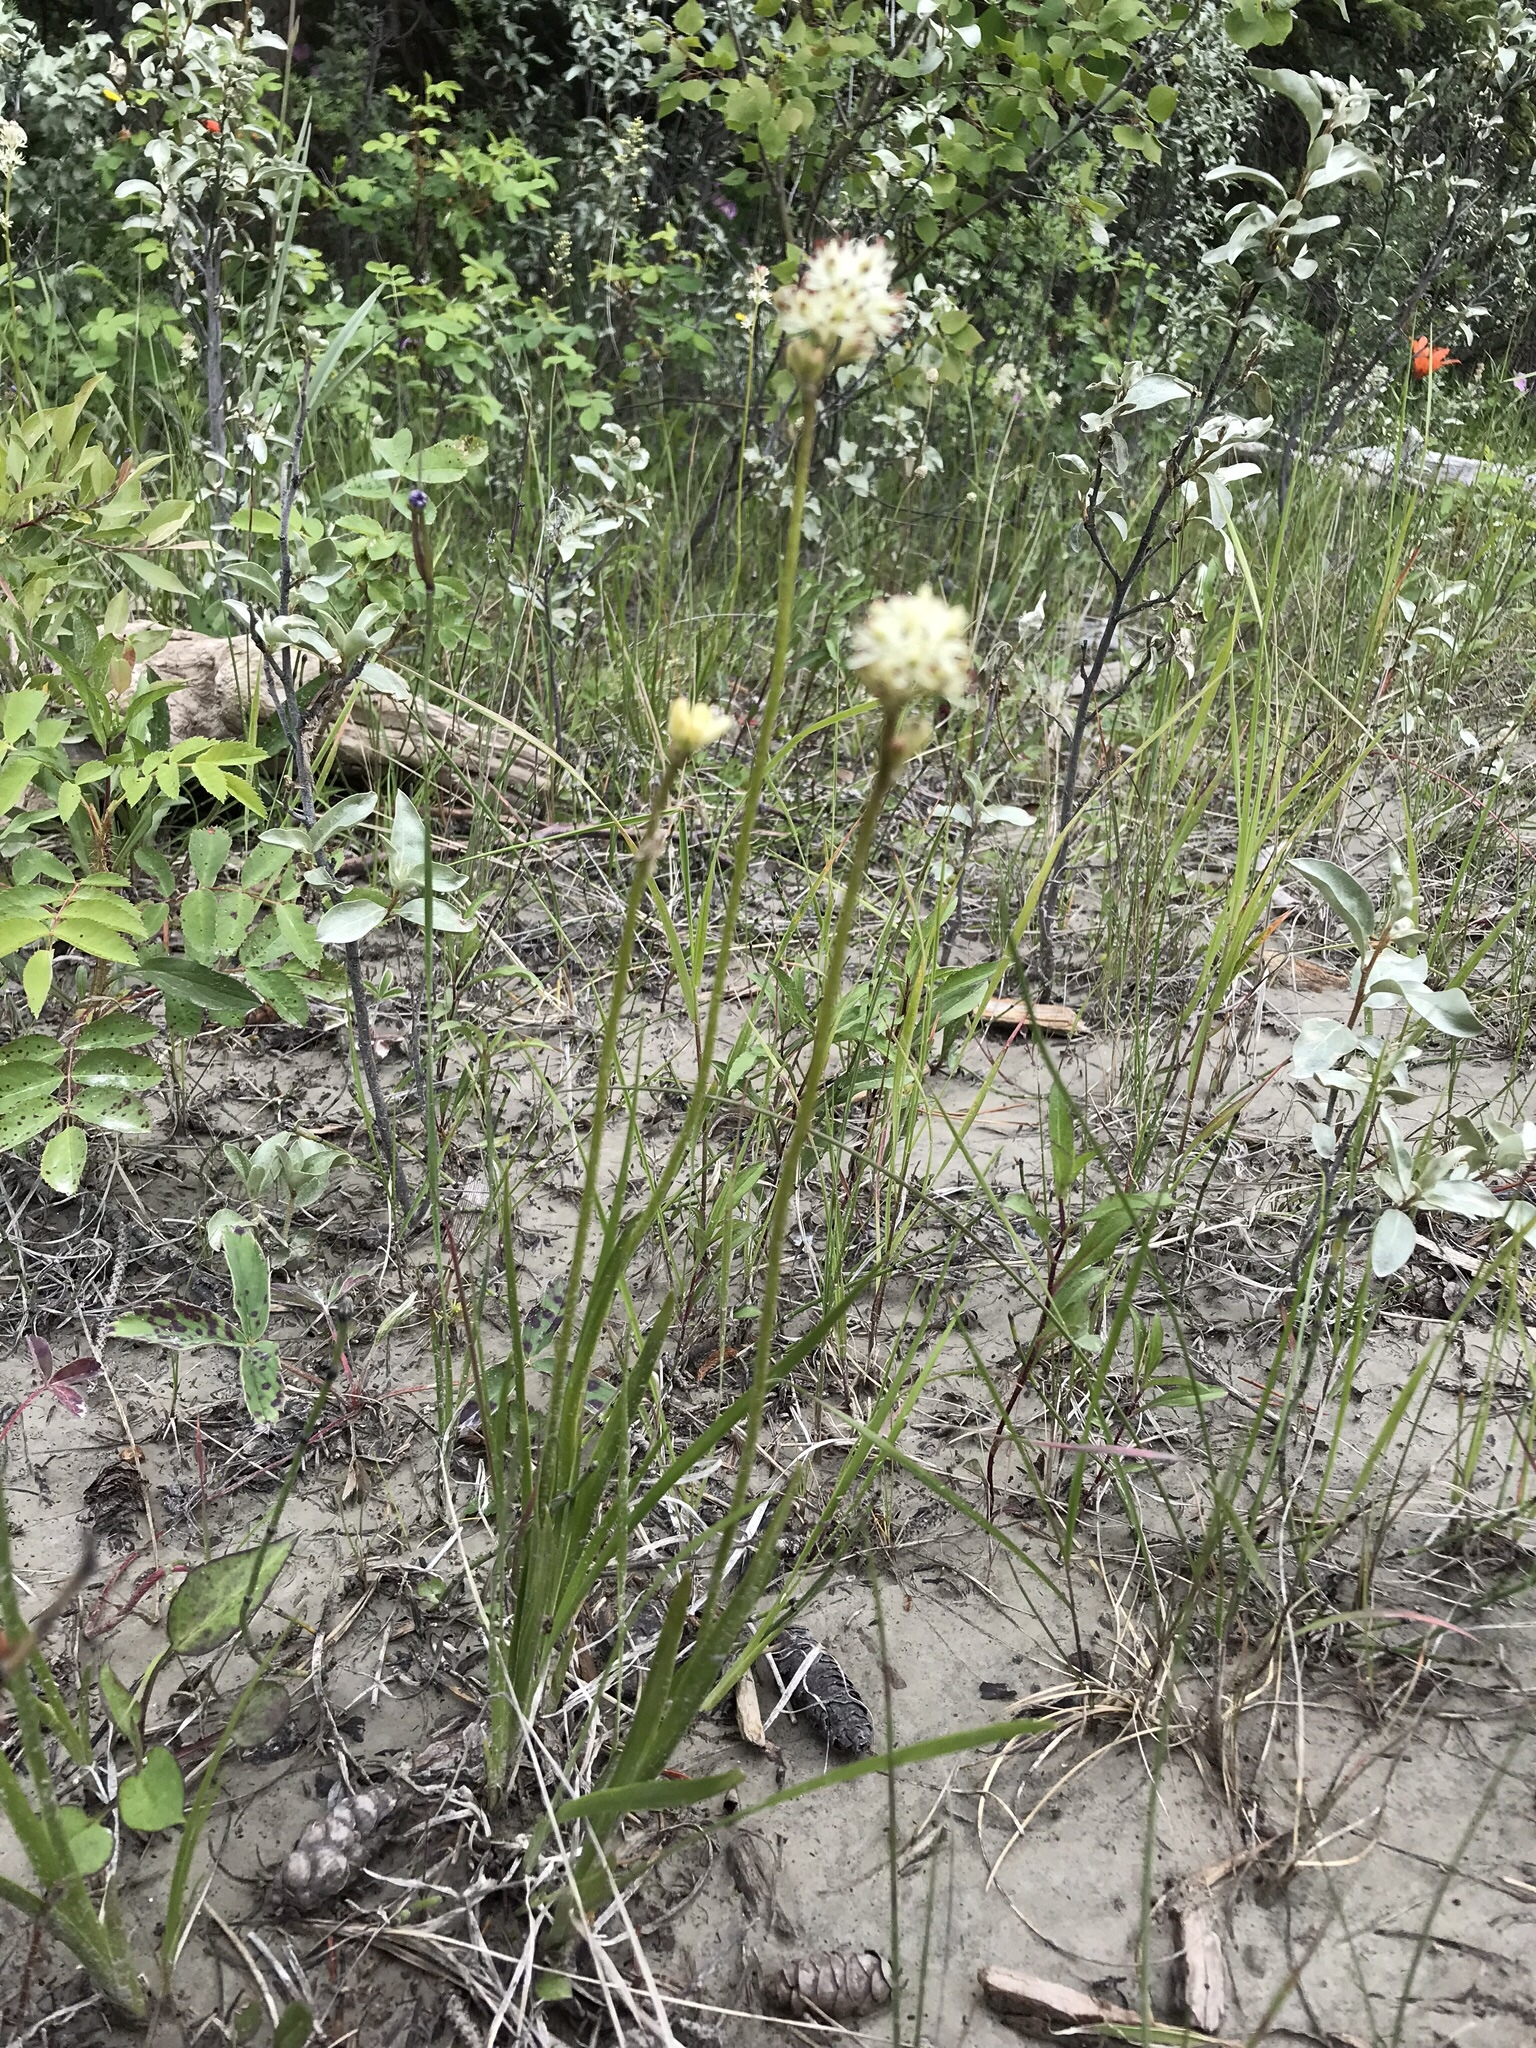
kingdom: Plantae
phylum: Tracheophyta
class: Liliopsida
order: Alismatales
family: Tofieldiaceae
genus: Triantha
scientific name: Triantha glutinosa
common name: Glutinous tofieldia
